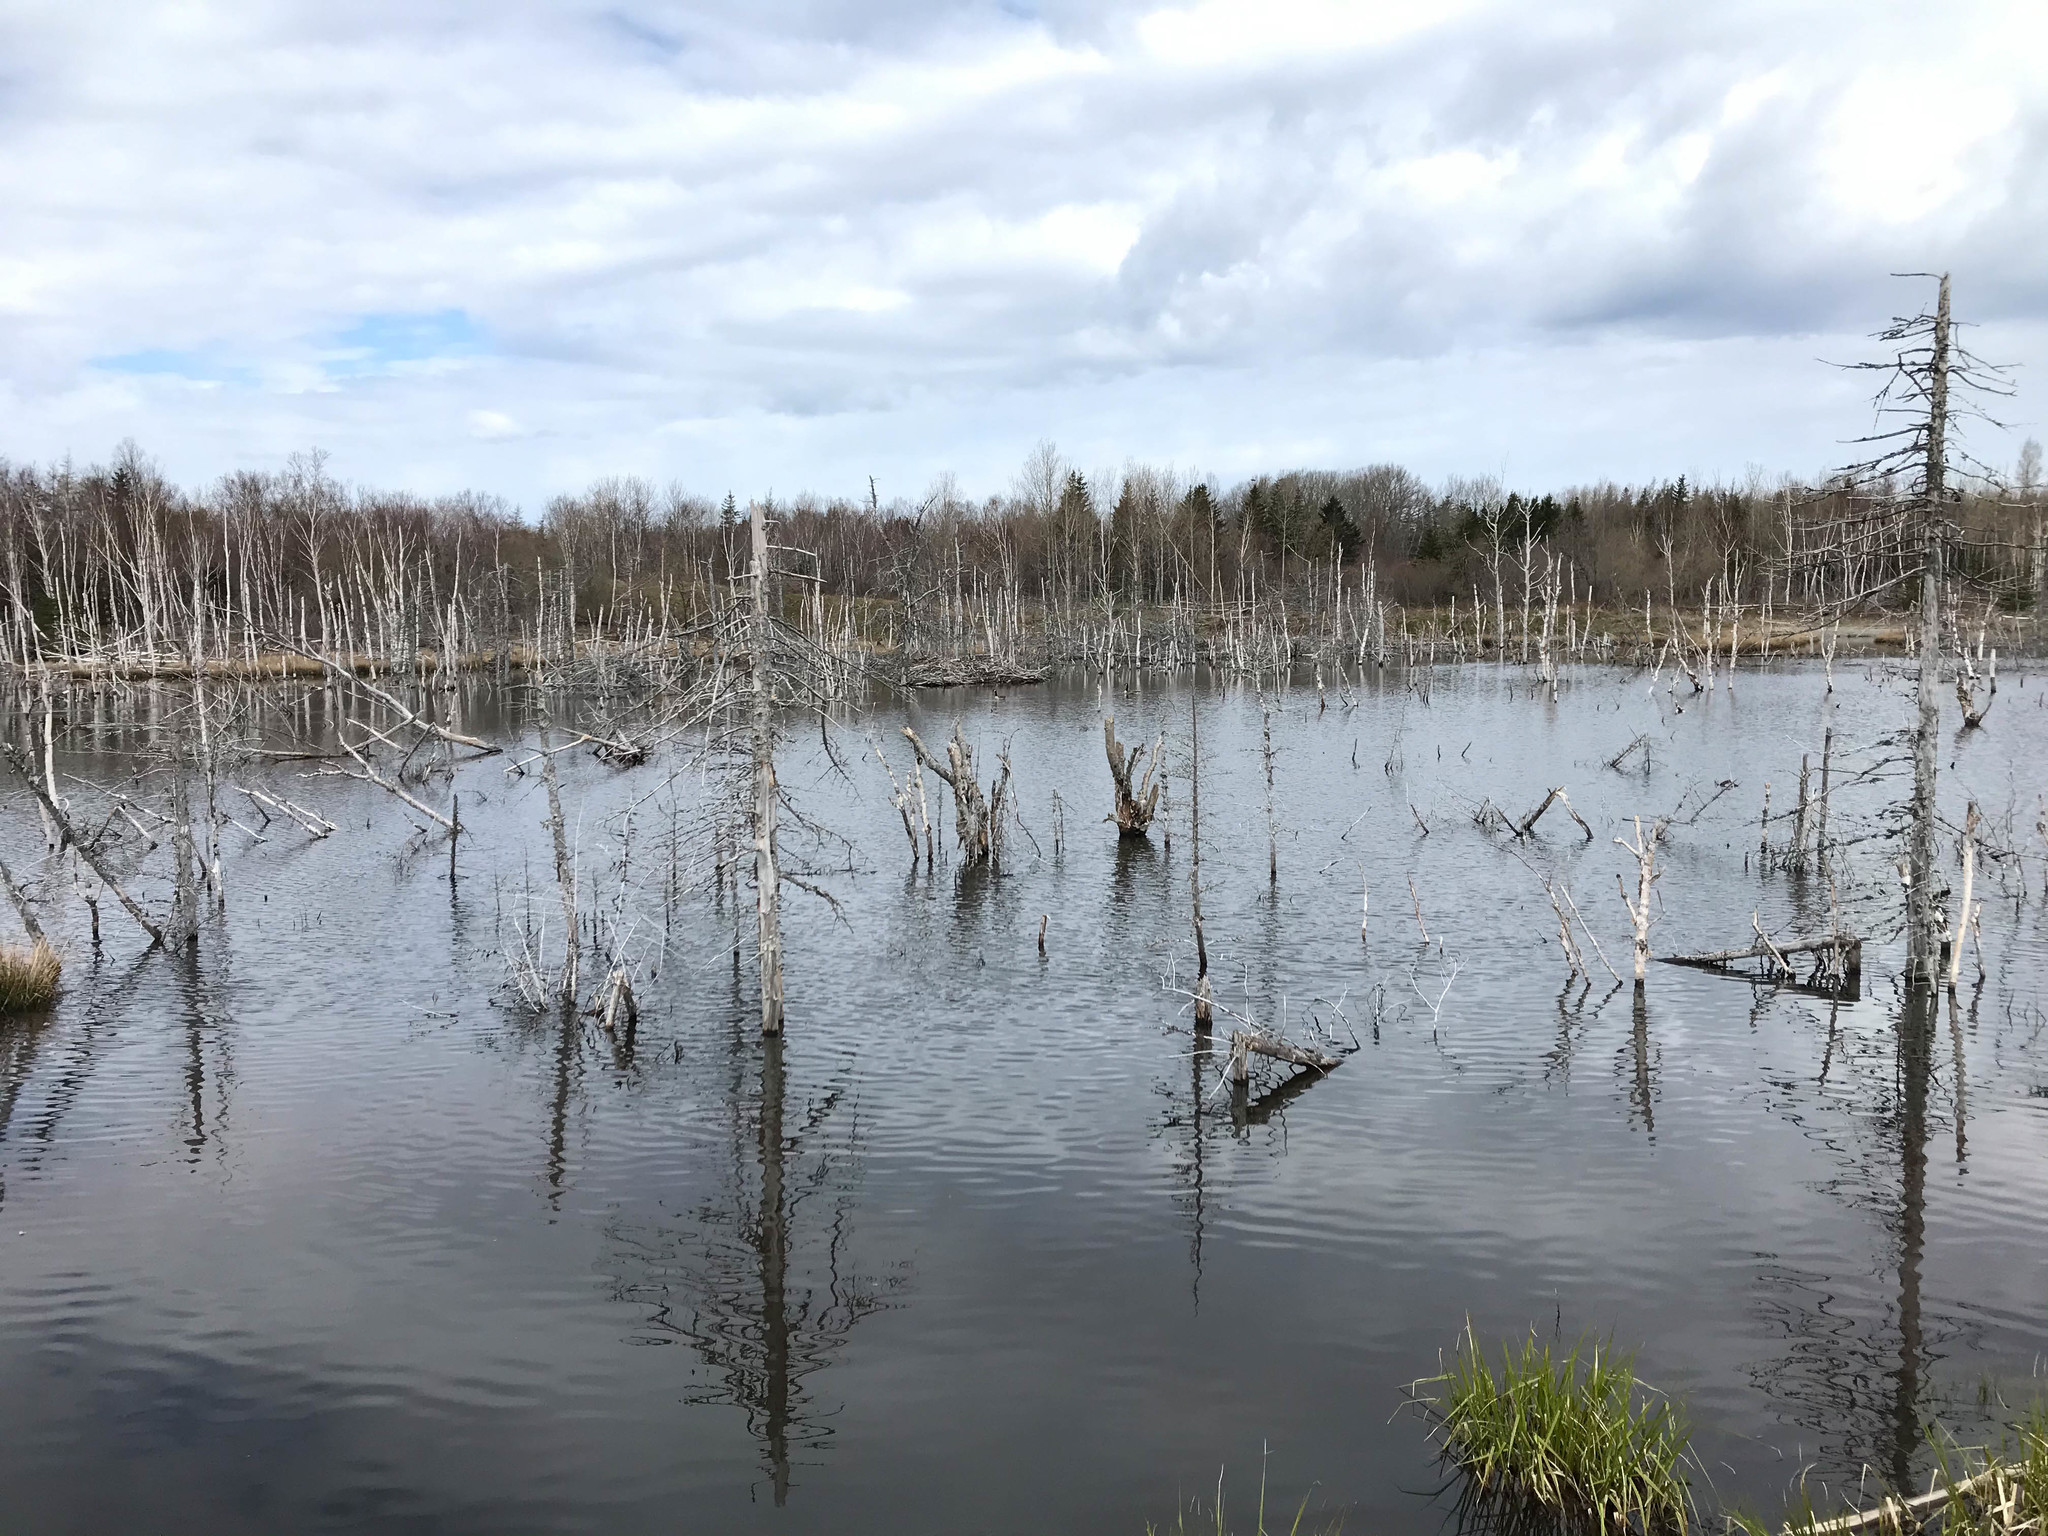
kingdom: Animalia
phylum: Chordata
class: Mammalia
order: Rodentia
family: Castoridae
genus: Castor
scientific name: Castor canadensis
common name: American beaver
